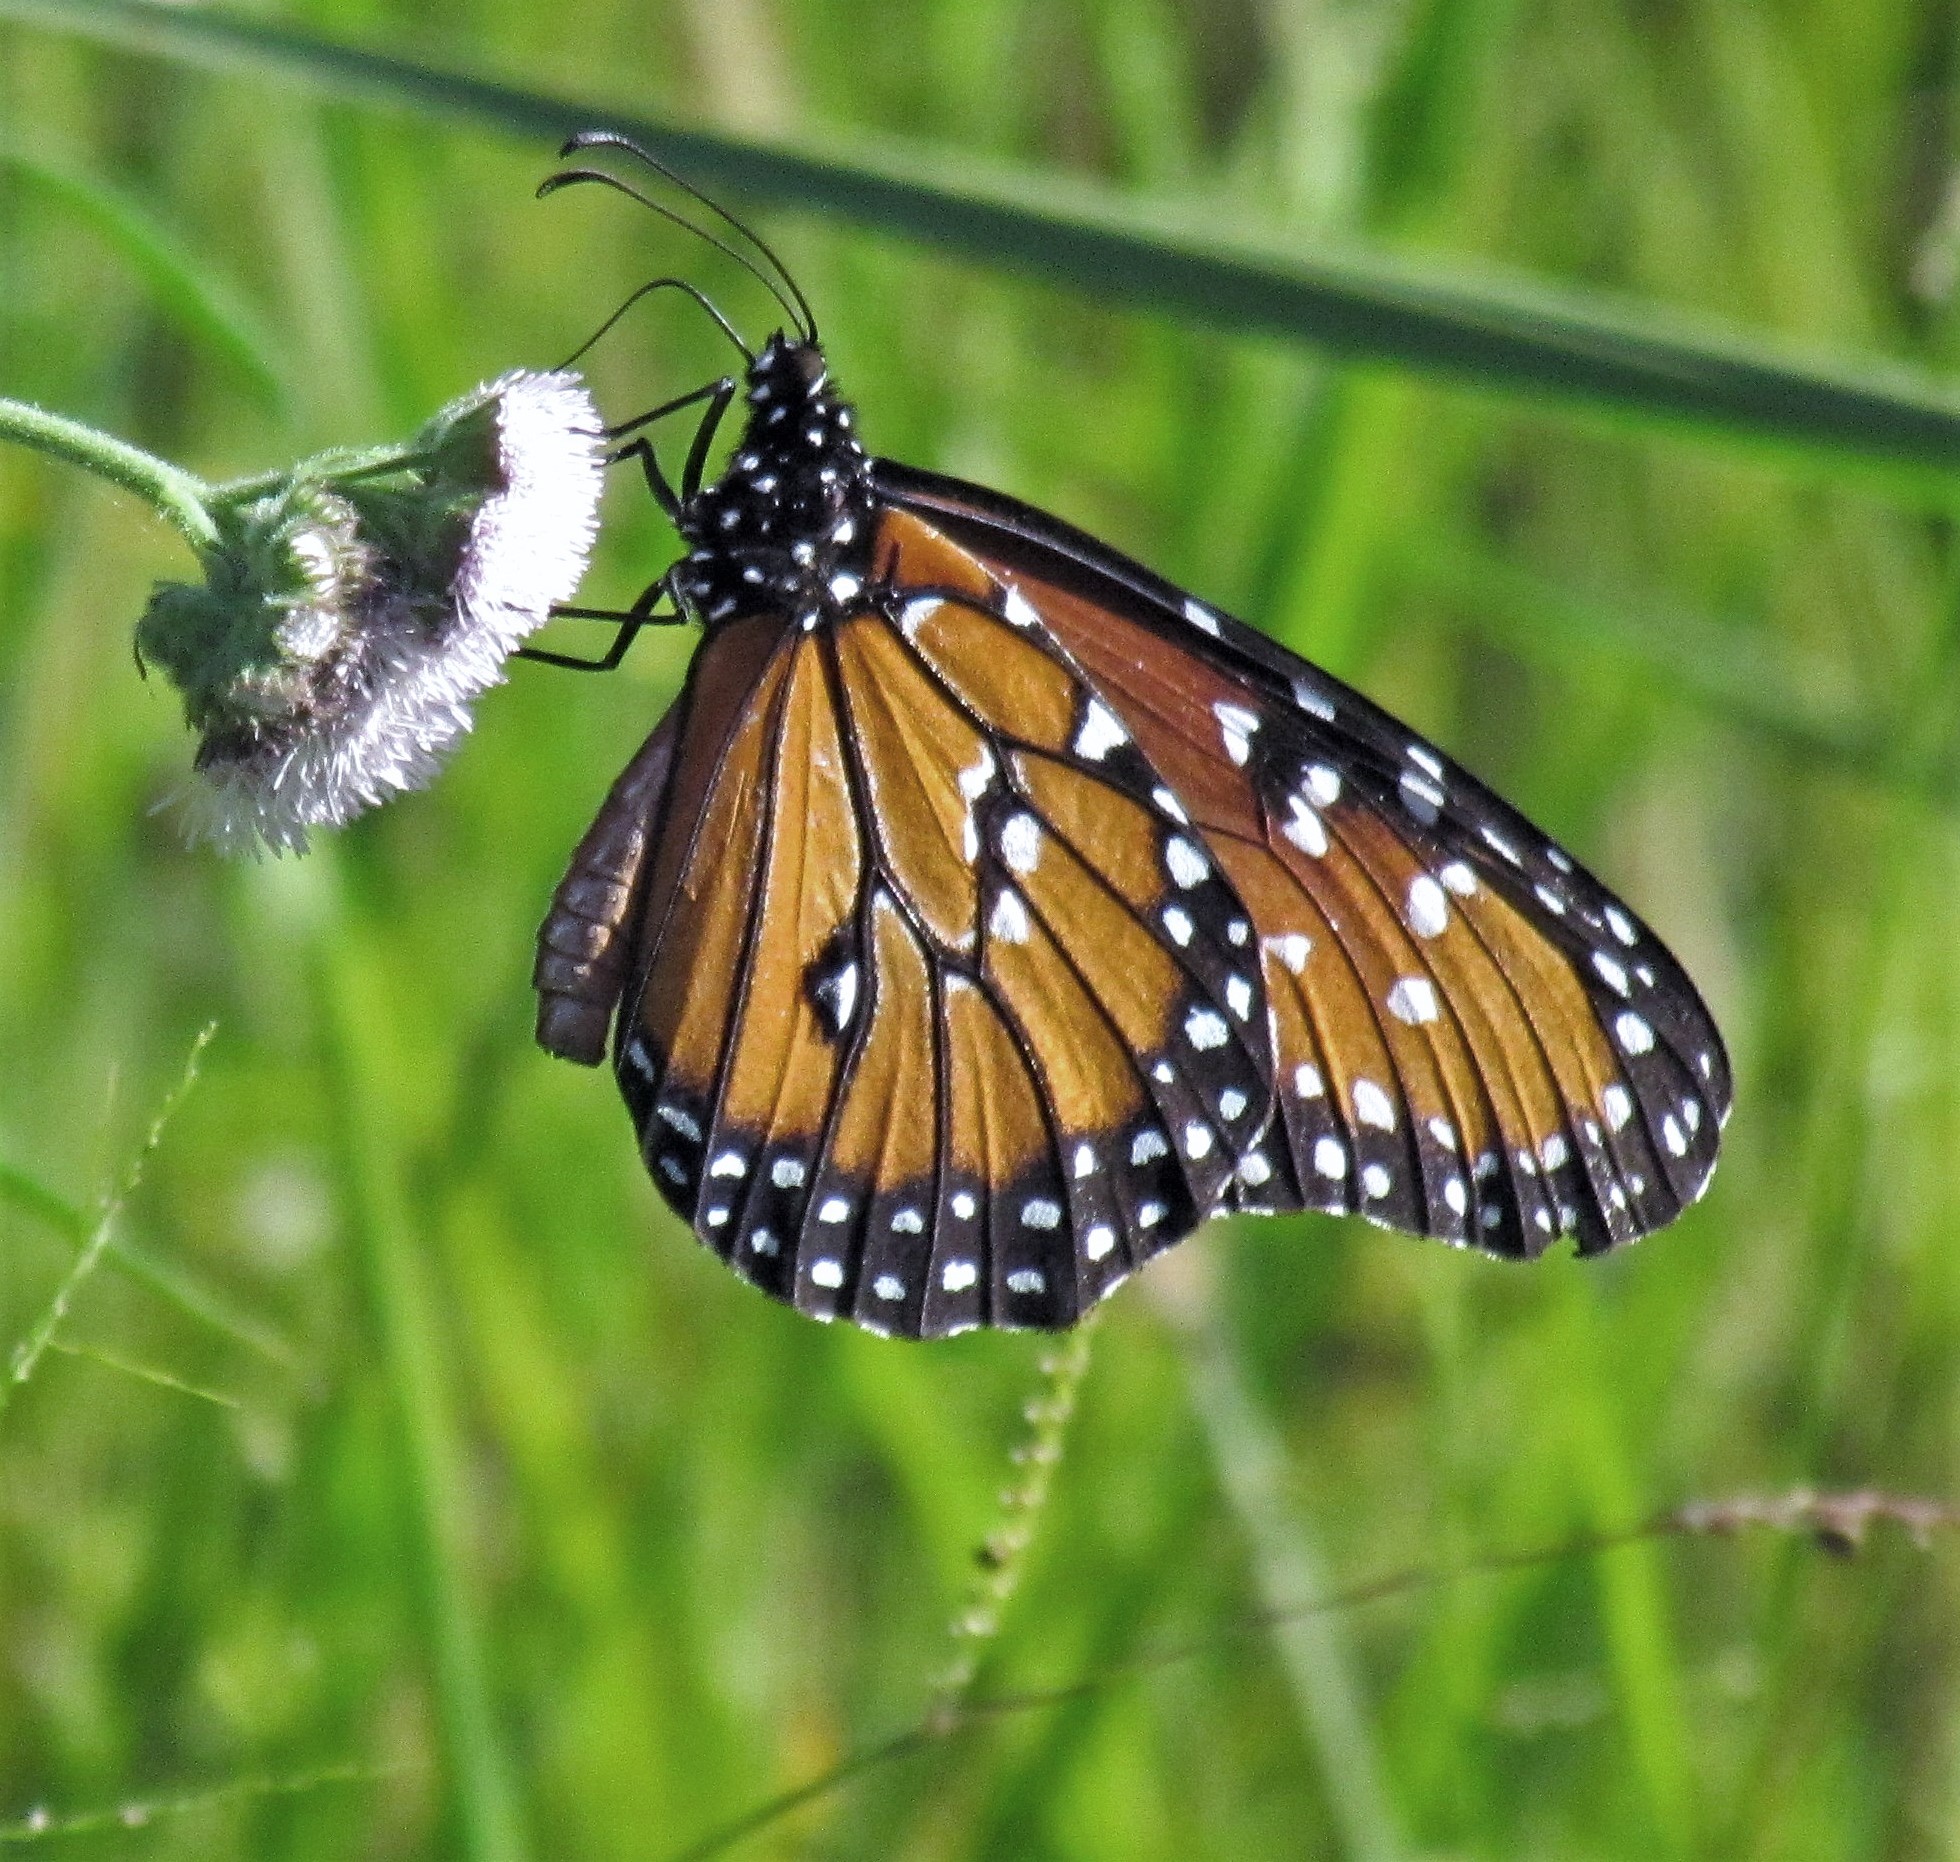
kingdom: Animalia
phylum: Arthropoda
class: Insecta
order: Lepidoptera
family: Nymphalidae
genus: Danaus
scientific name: Danaus gilippus
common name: Queen
